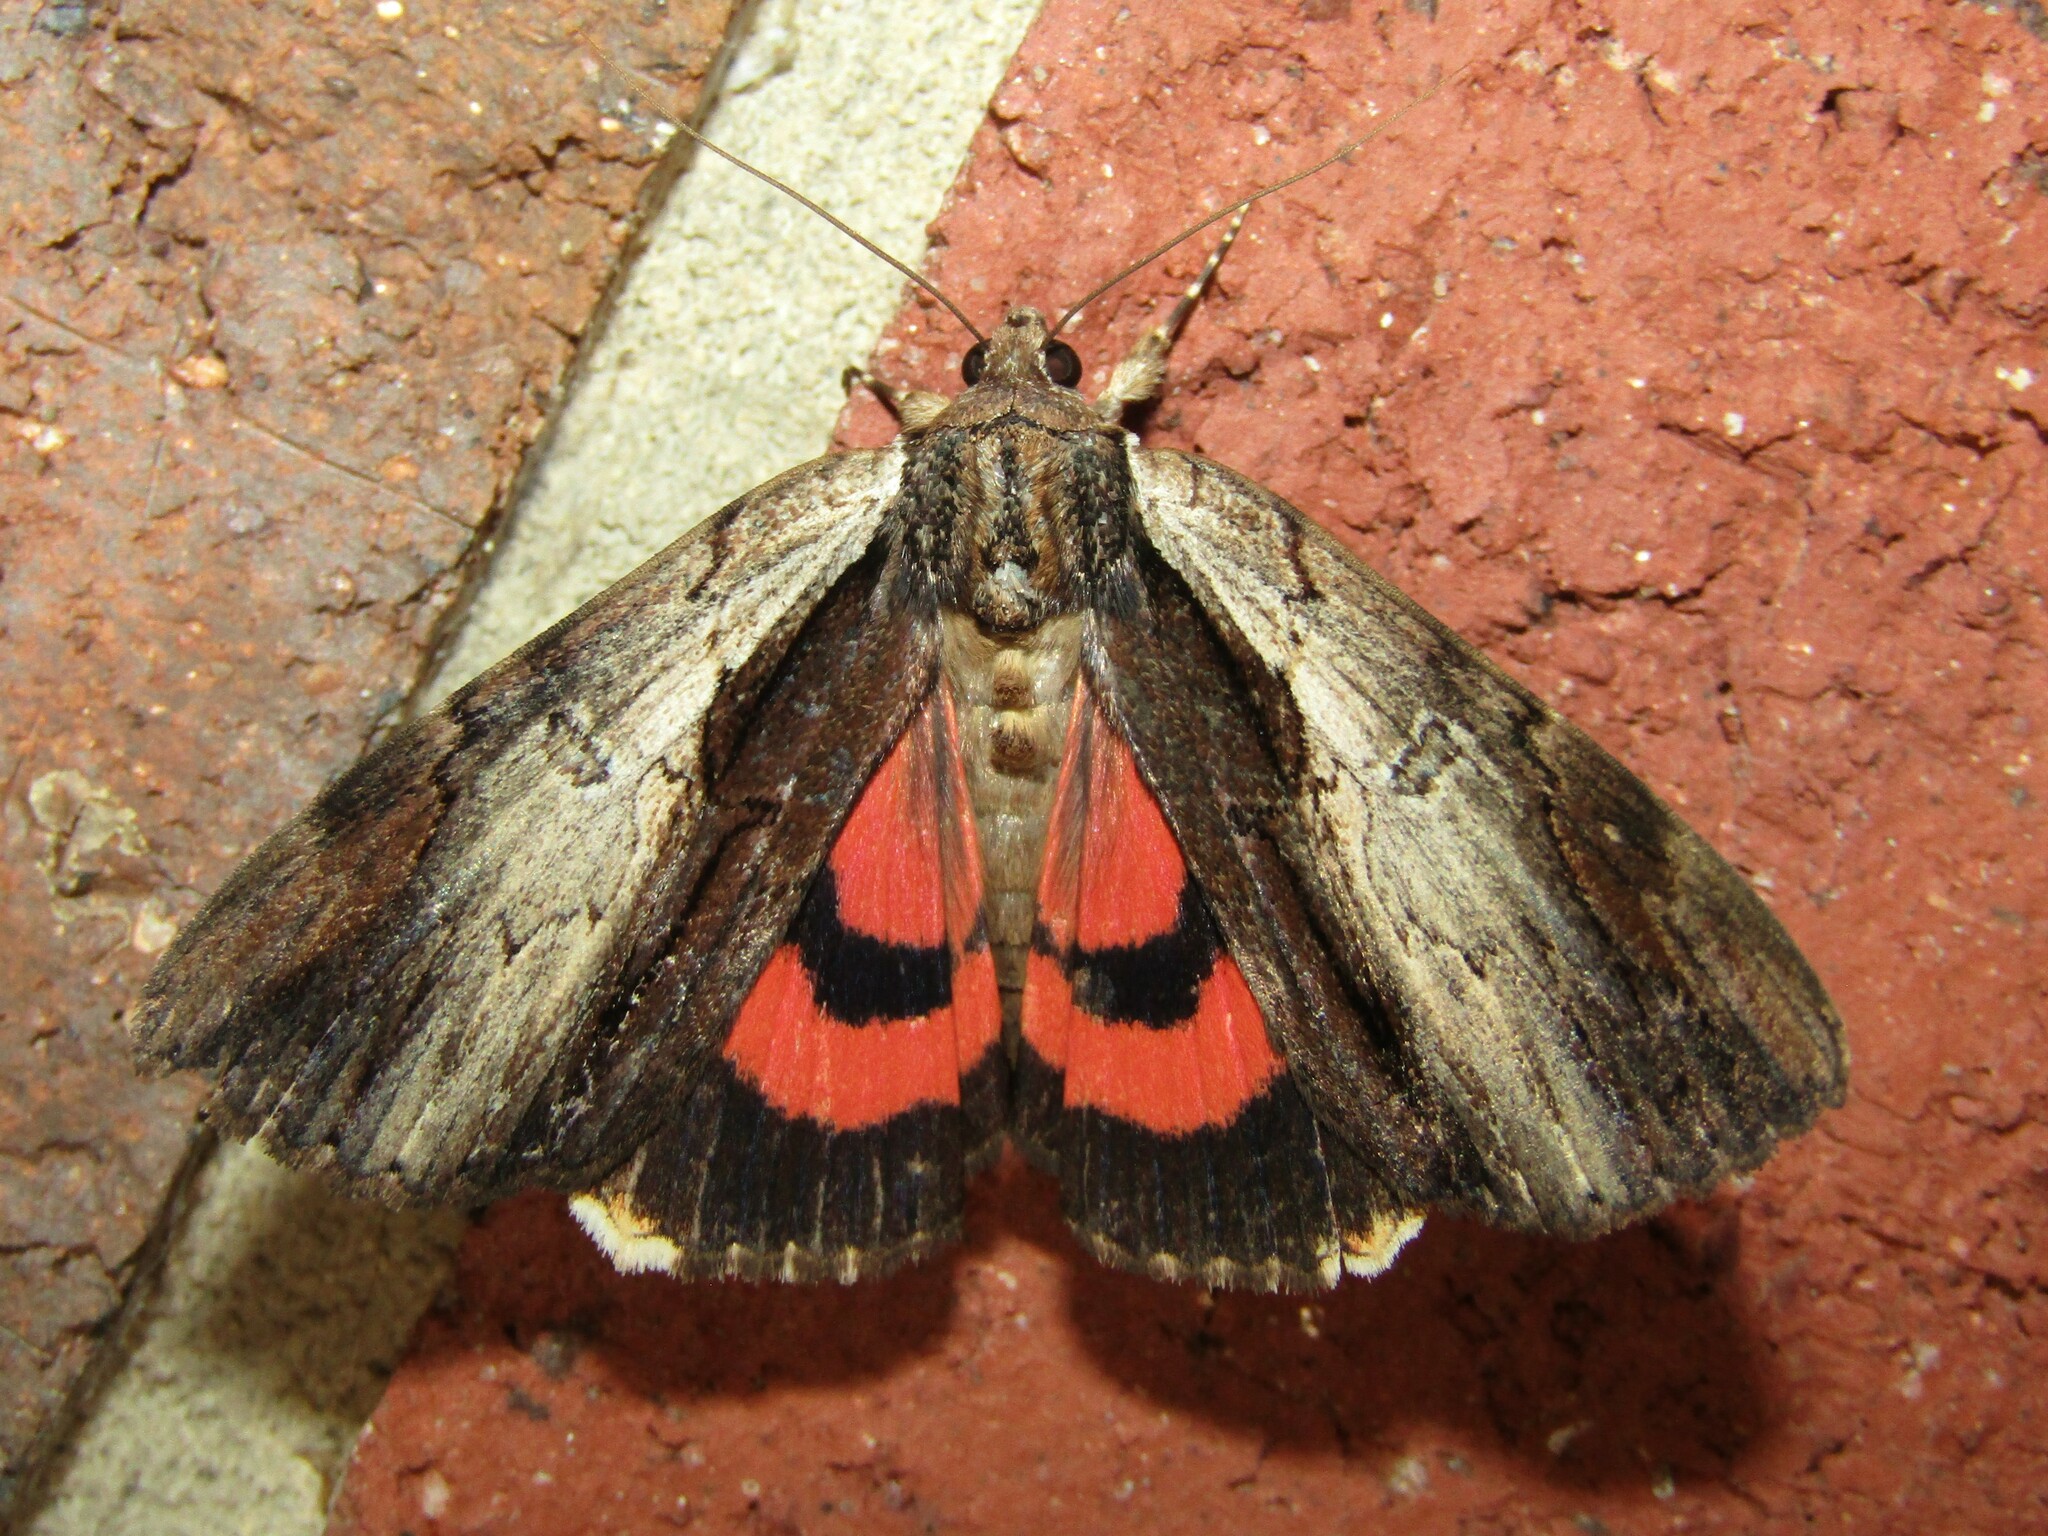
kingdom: Animalia
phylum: Arthropoda
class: Insecta
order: Lepidoptera
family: Erebidae
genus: Catocala
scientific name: Catocala ultronia
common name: Ultronia underwing
